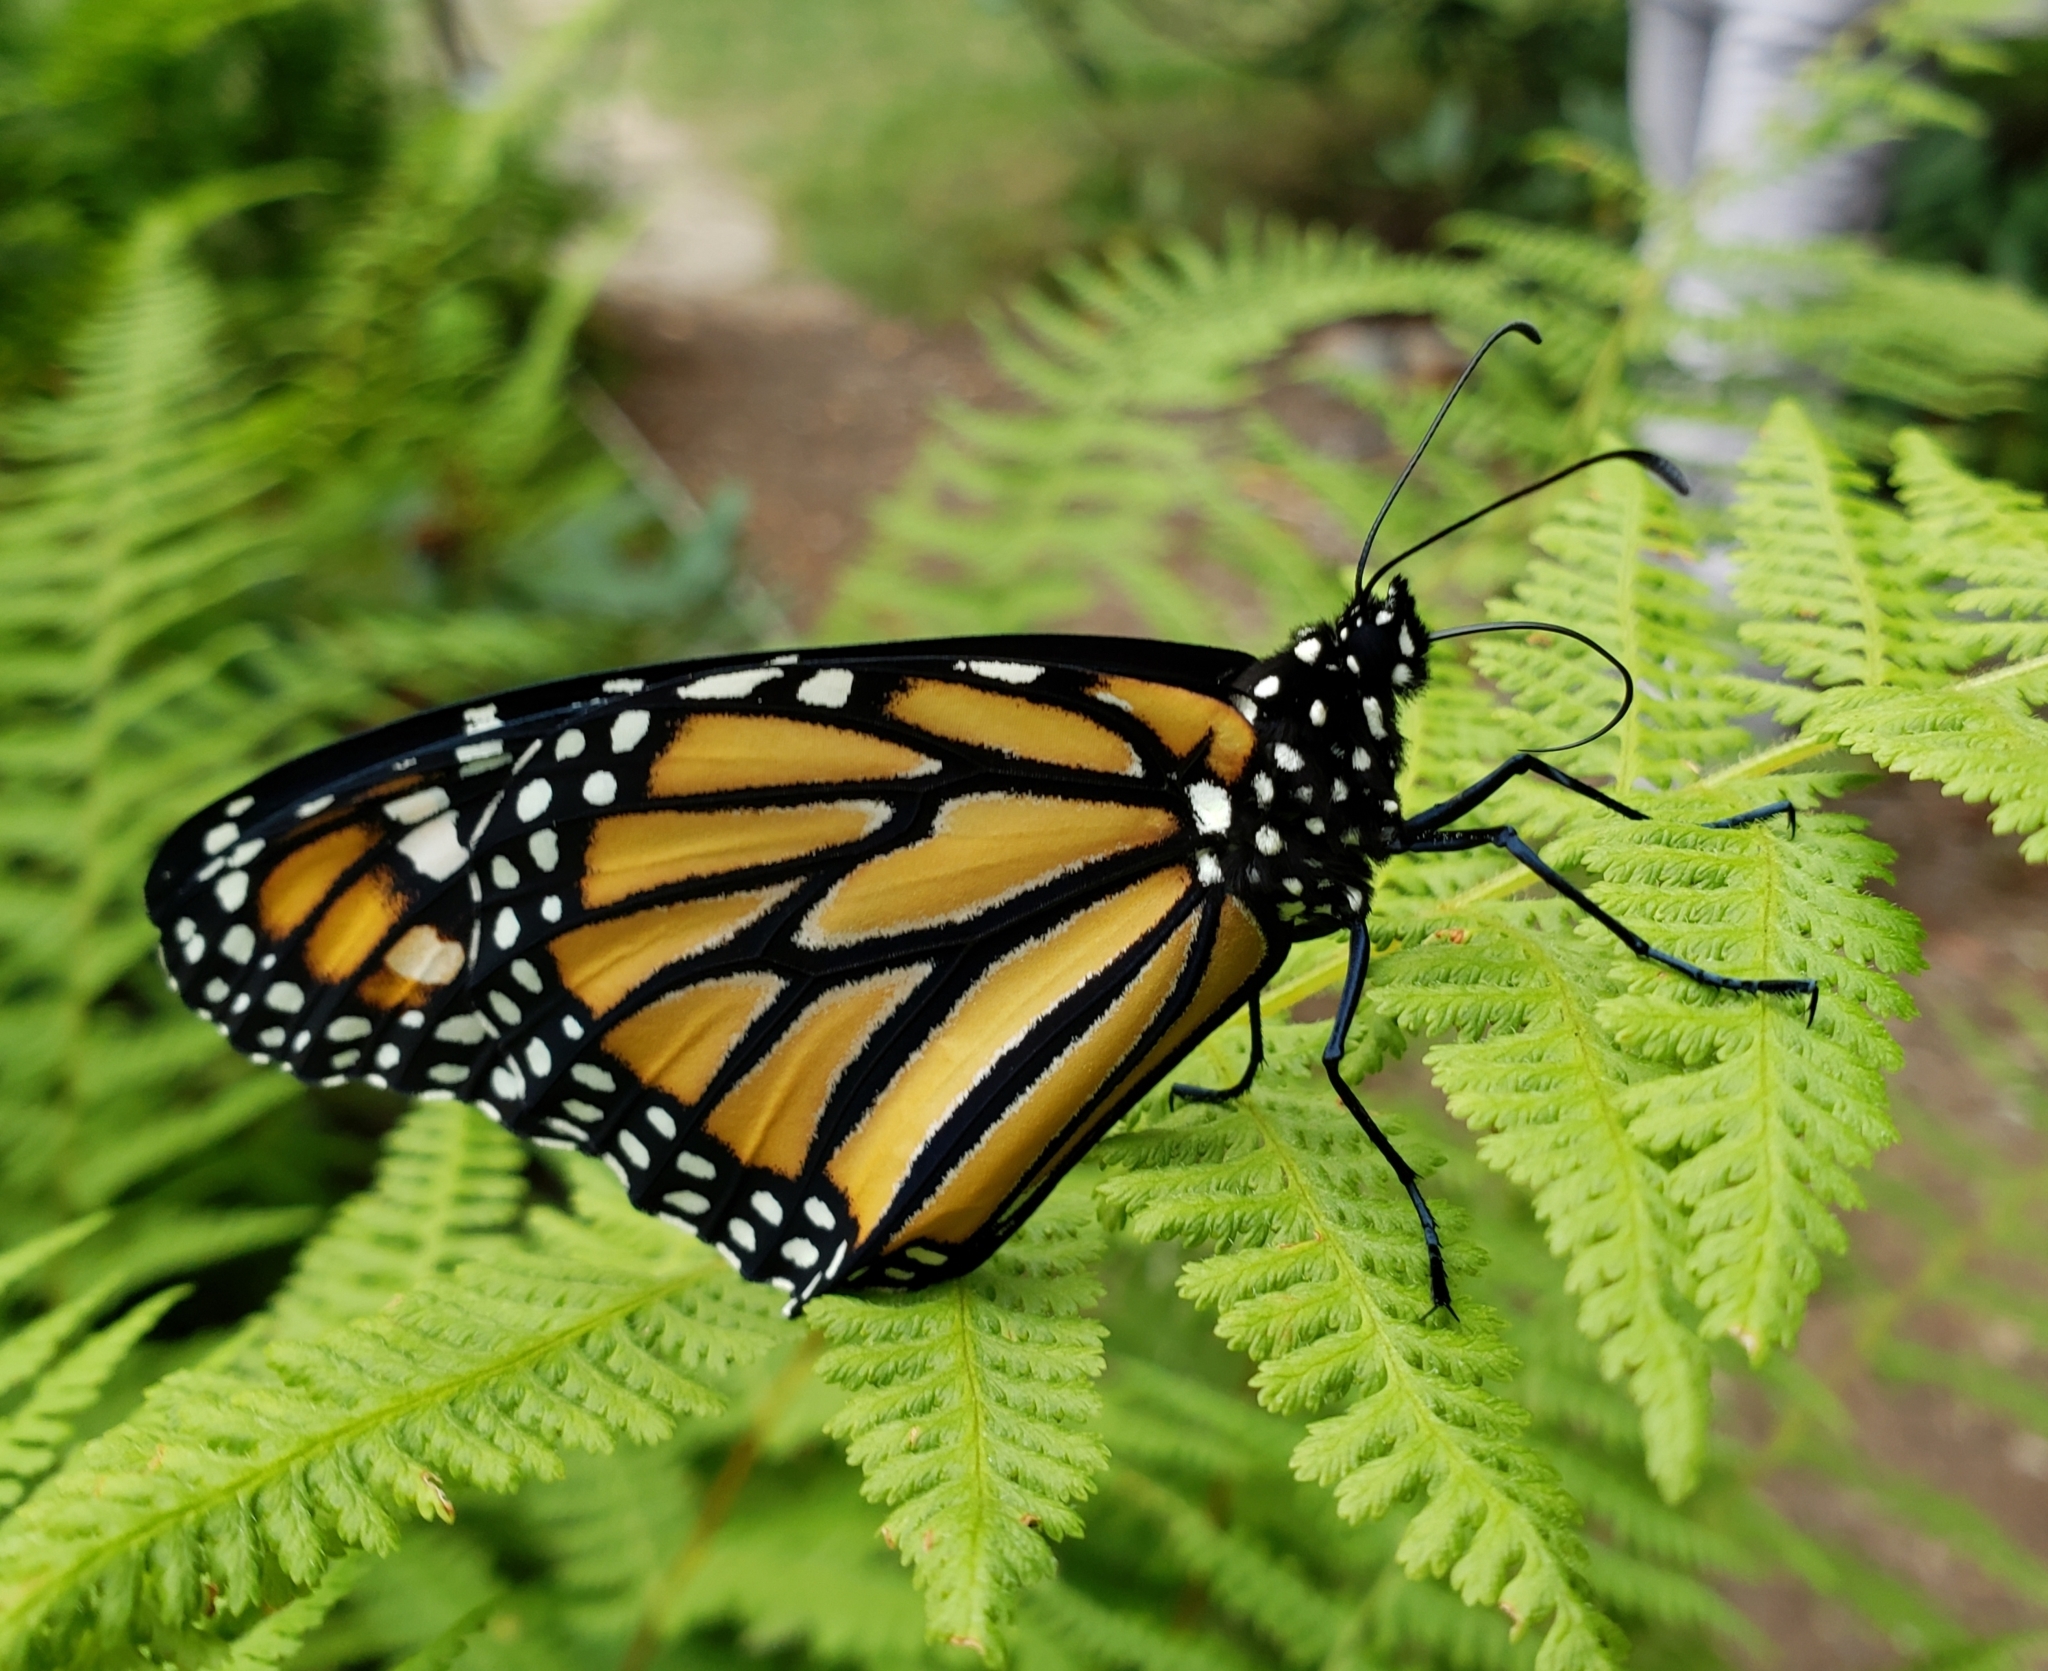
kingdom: Animalia
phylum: Arthropoda
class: Insecta
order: Lepidoptera
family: Nymphalidae
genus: Danaus
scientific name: Danaus plexippus
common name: Monarch
